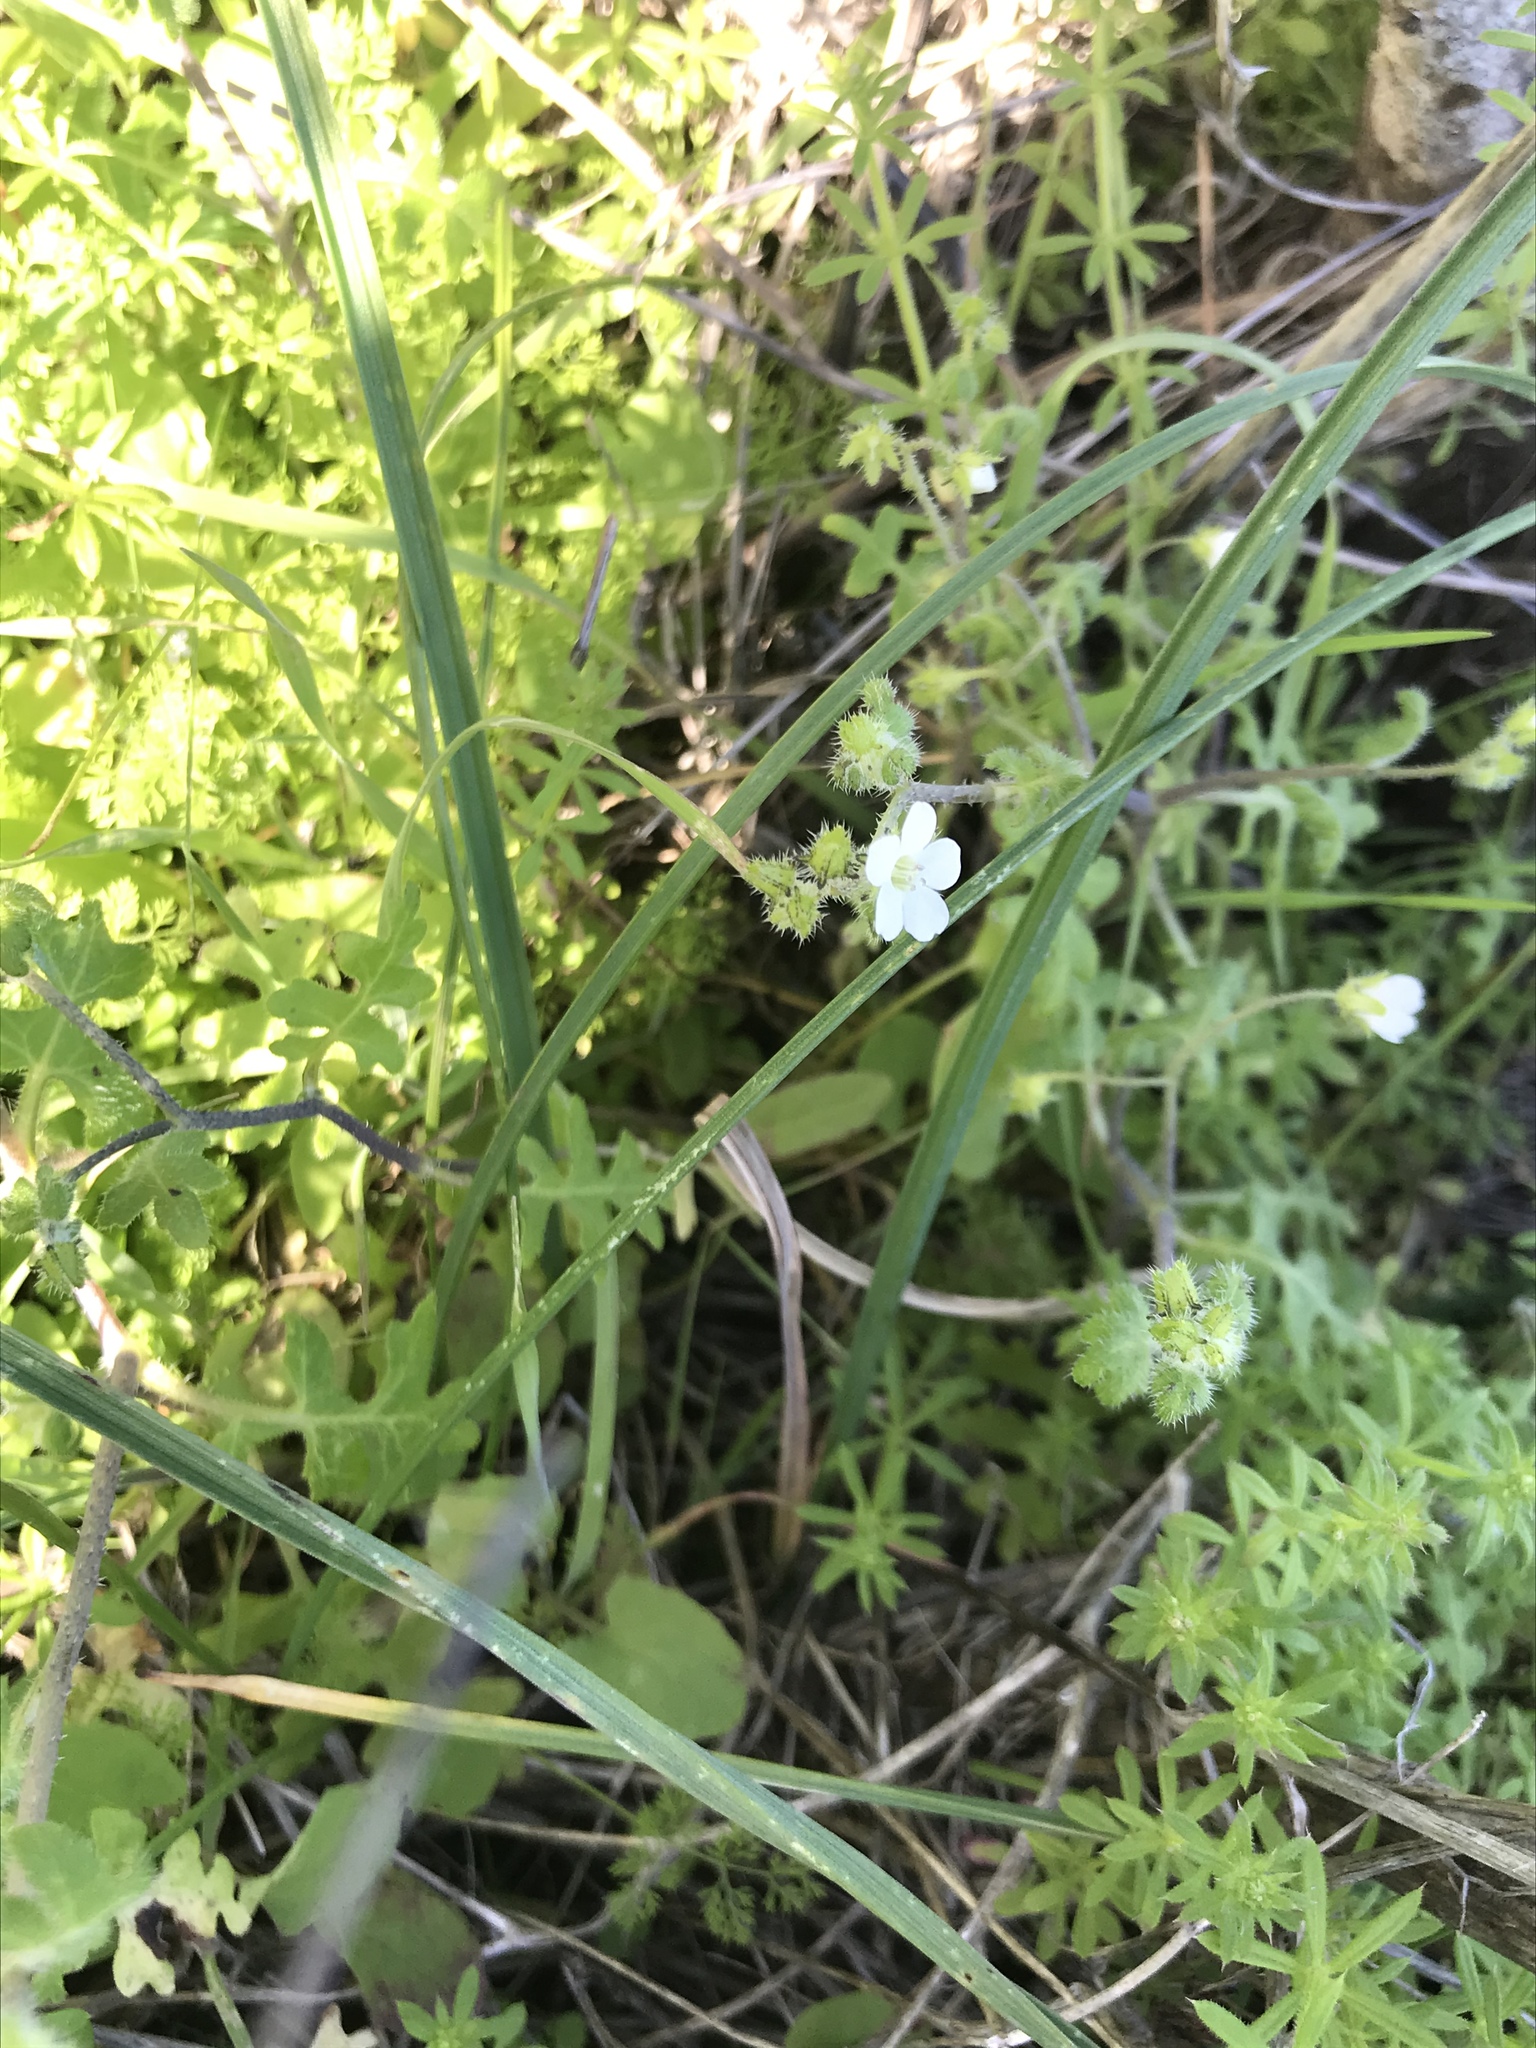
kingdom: Plantae
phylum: Tracheophyta
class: Magnoliopsida
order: Boraginales
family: Hydrophyllaceae
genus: Pholistoma
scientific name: Pholistoma racemosum
